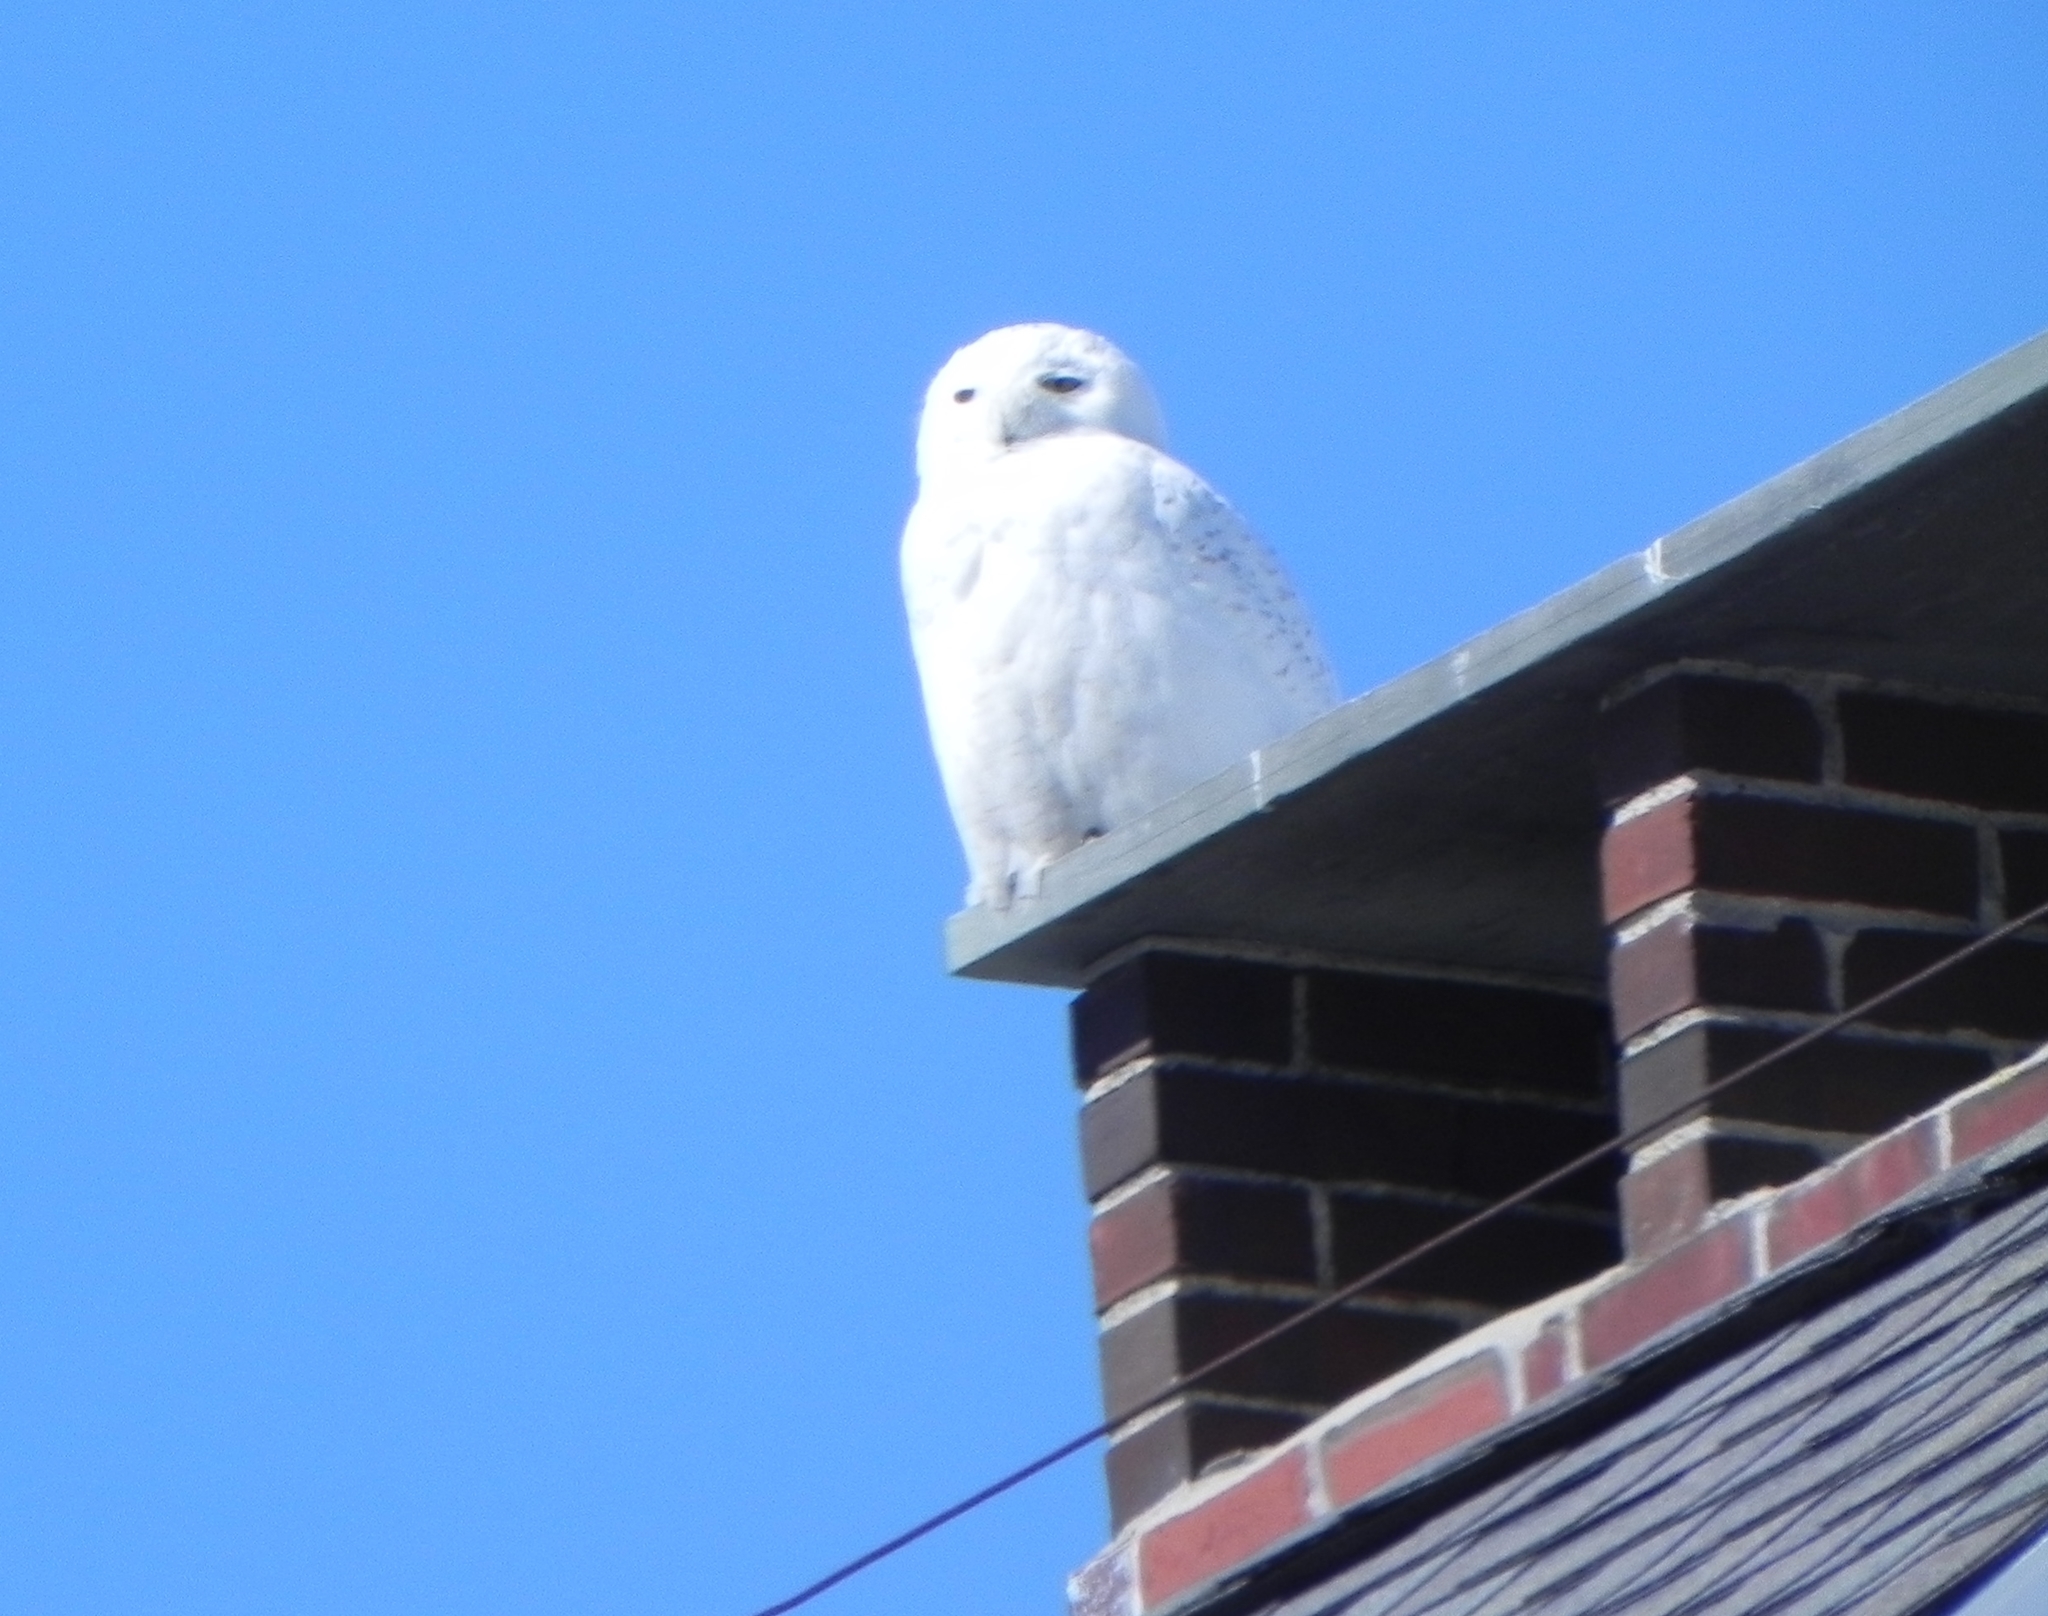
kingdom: Animalia
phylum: Chordata
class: Aves
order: Strigiformes
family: Strigidae
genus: Bubo
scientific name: Bubo scandiacus
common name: Snowy owl
